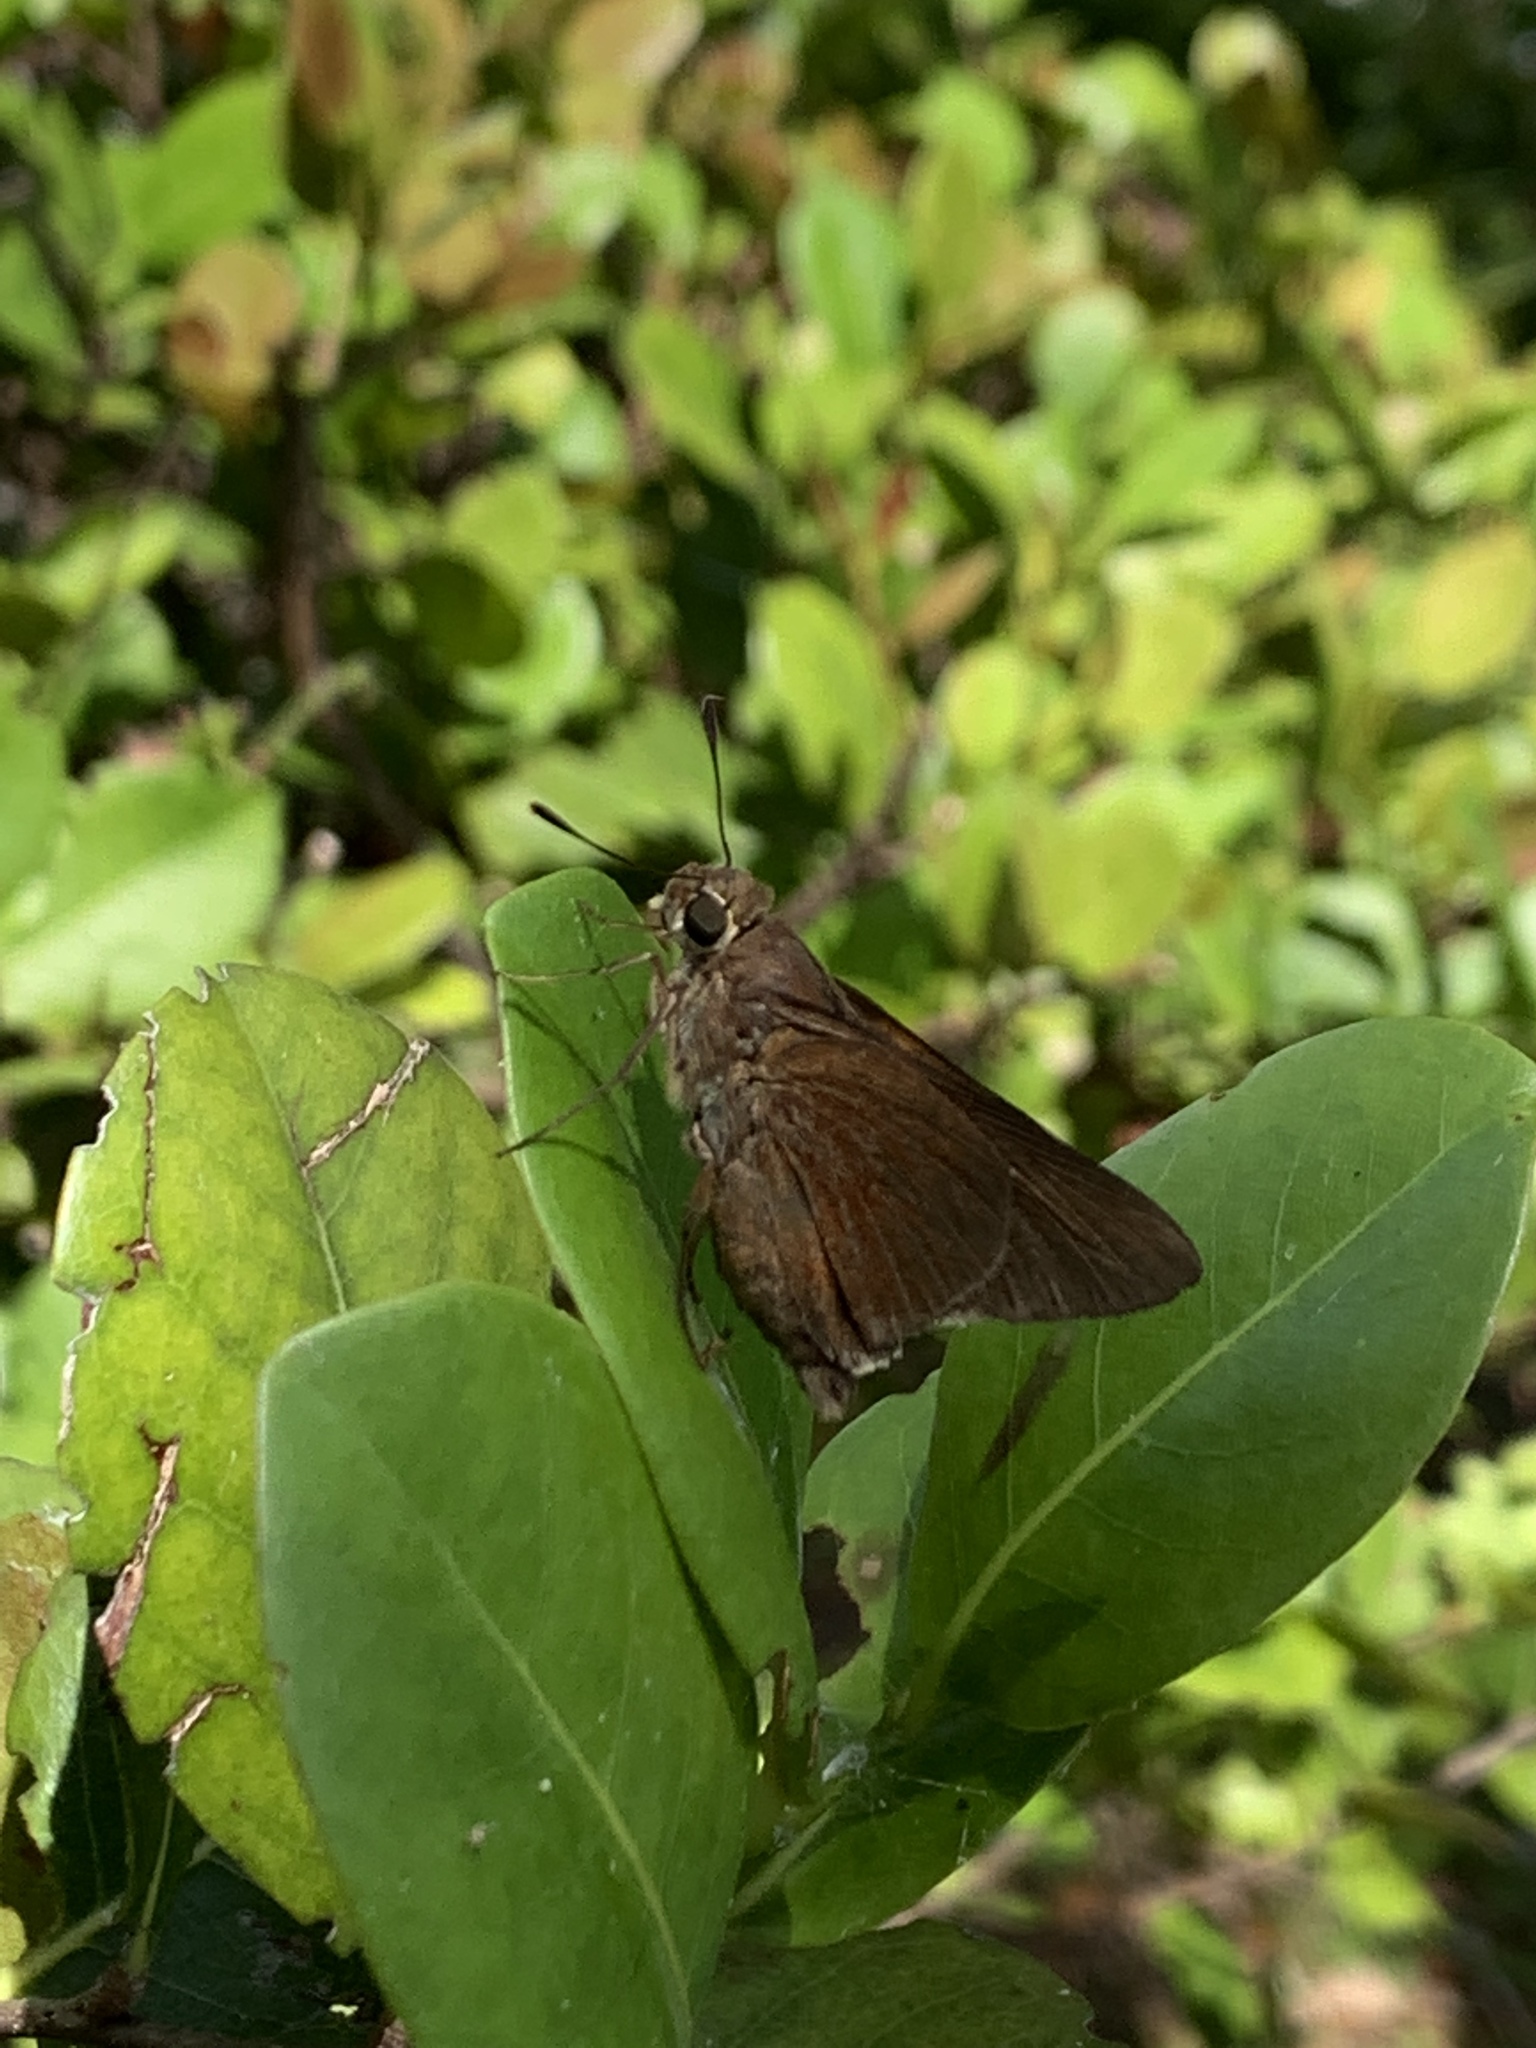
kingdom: Animalia
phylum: Arthropoda
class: Insecta
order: Lepidoptera
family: Hesperiidae
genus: Asbolis
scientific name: Asbolis capucinus
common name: Monk skipper
